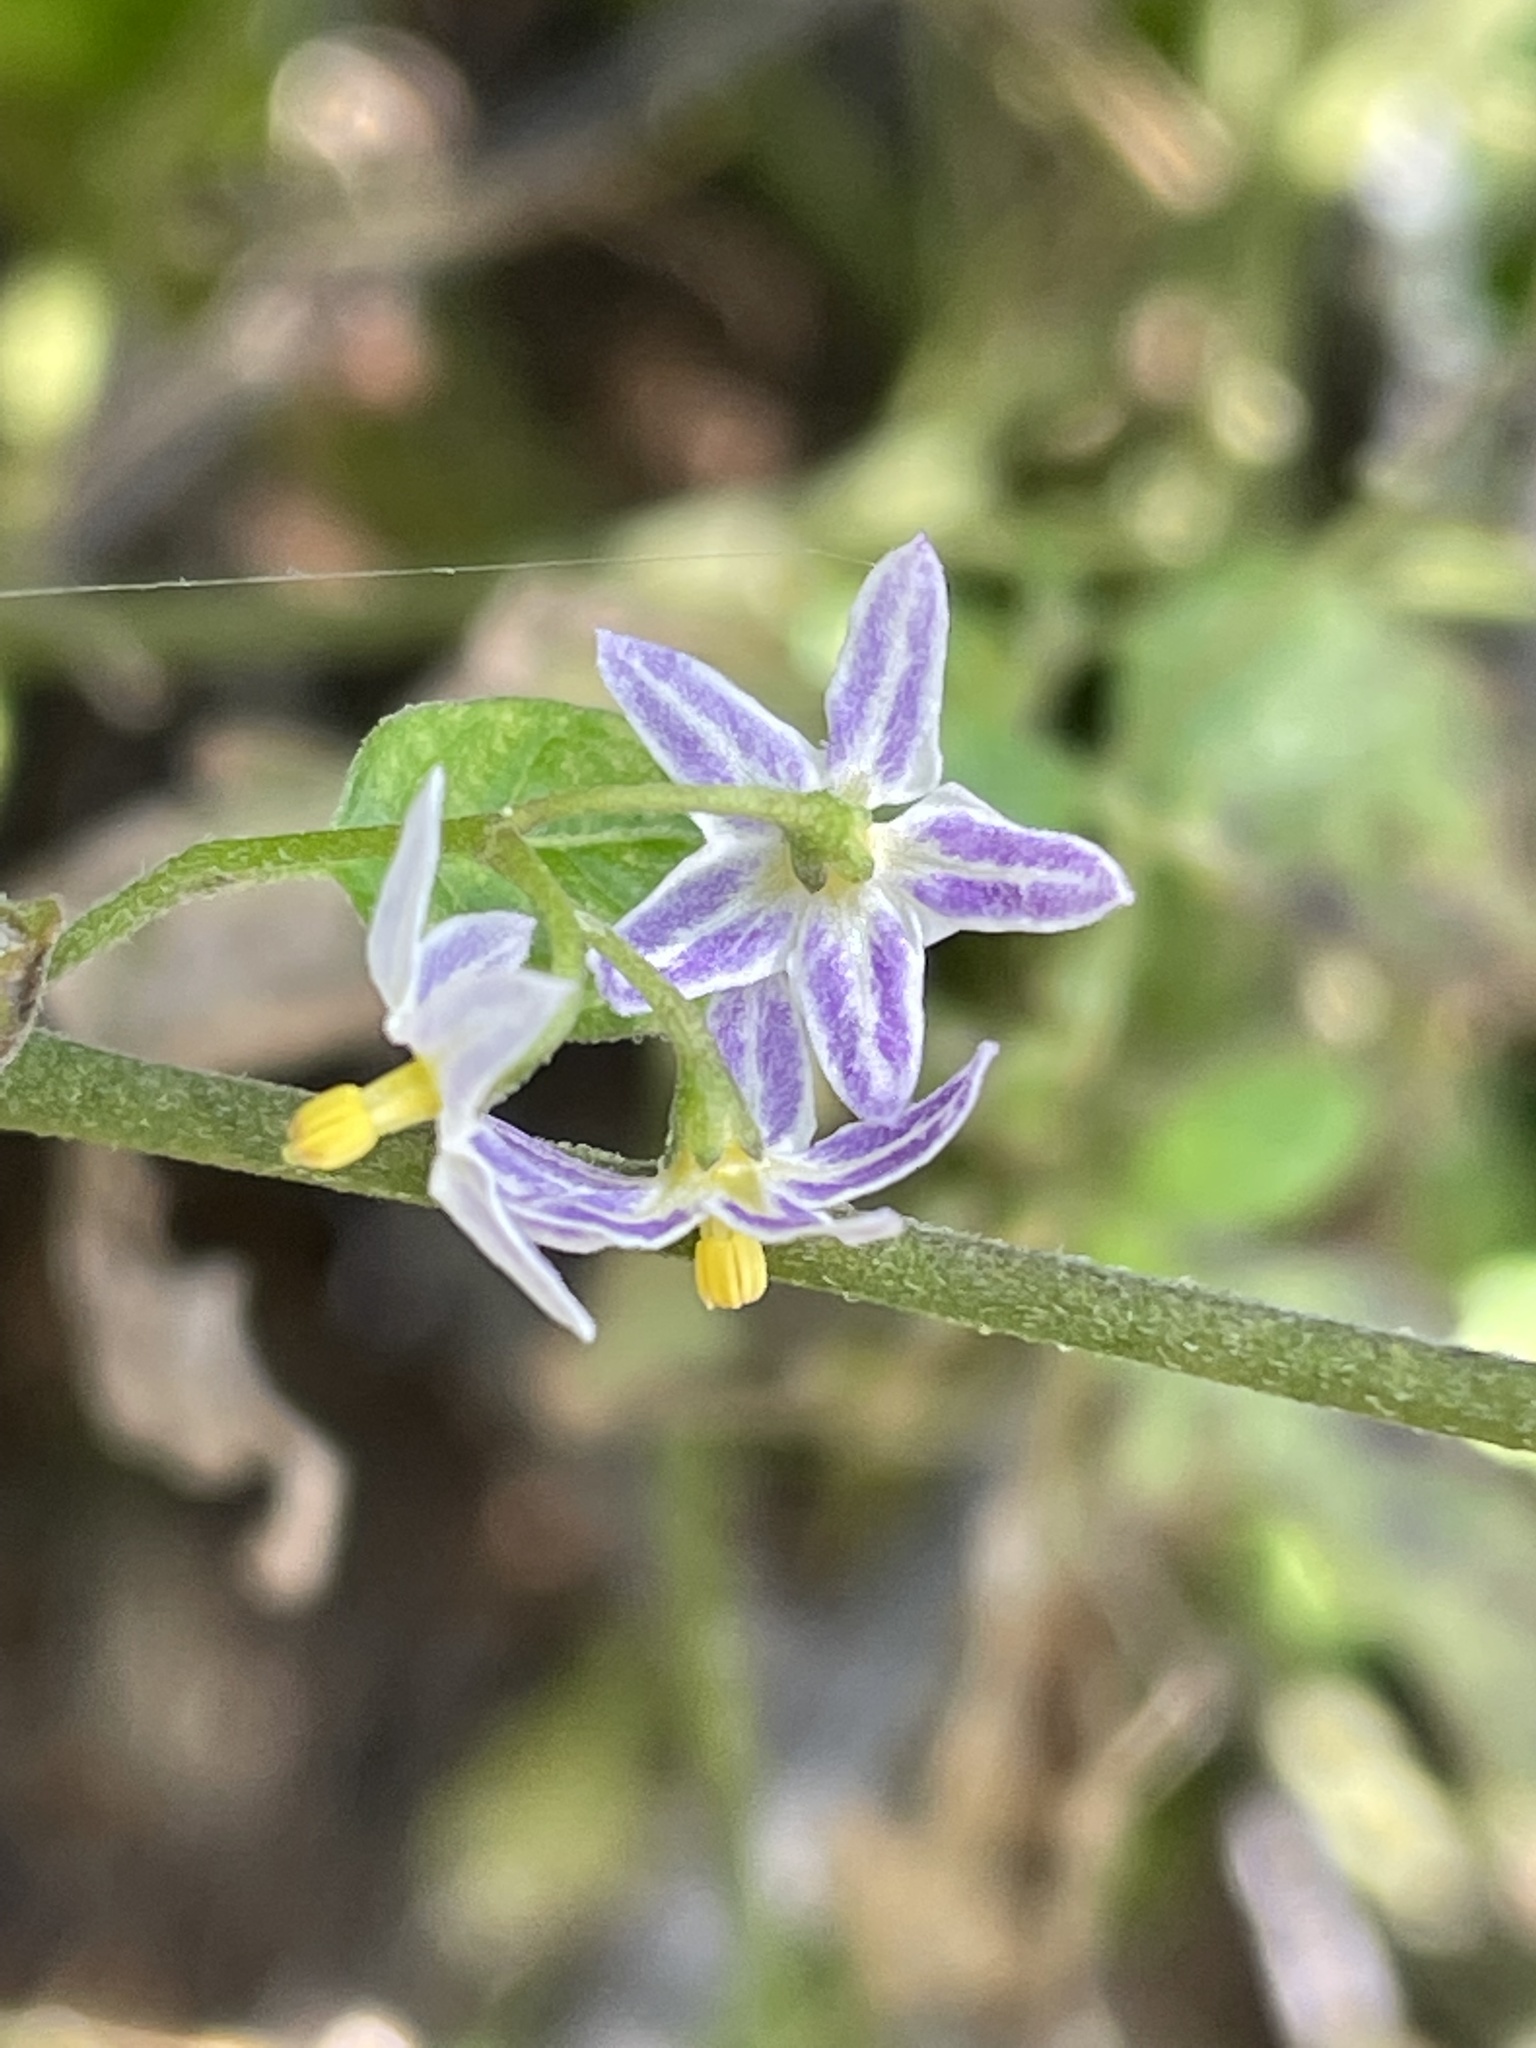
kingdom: Plantae
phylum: Tracheophyta
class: Magnoliopsida
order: Solanales
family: Solanaceae
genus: Solanum
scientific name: Solanum emulans
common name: Eastern black nightshade
